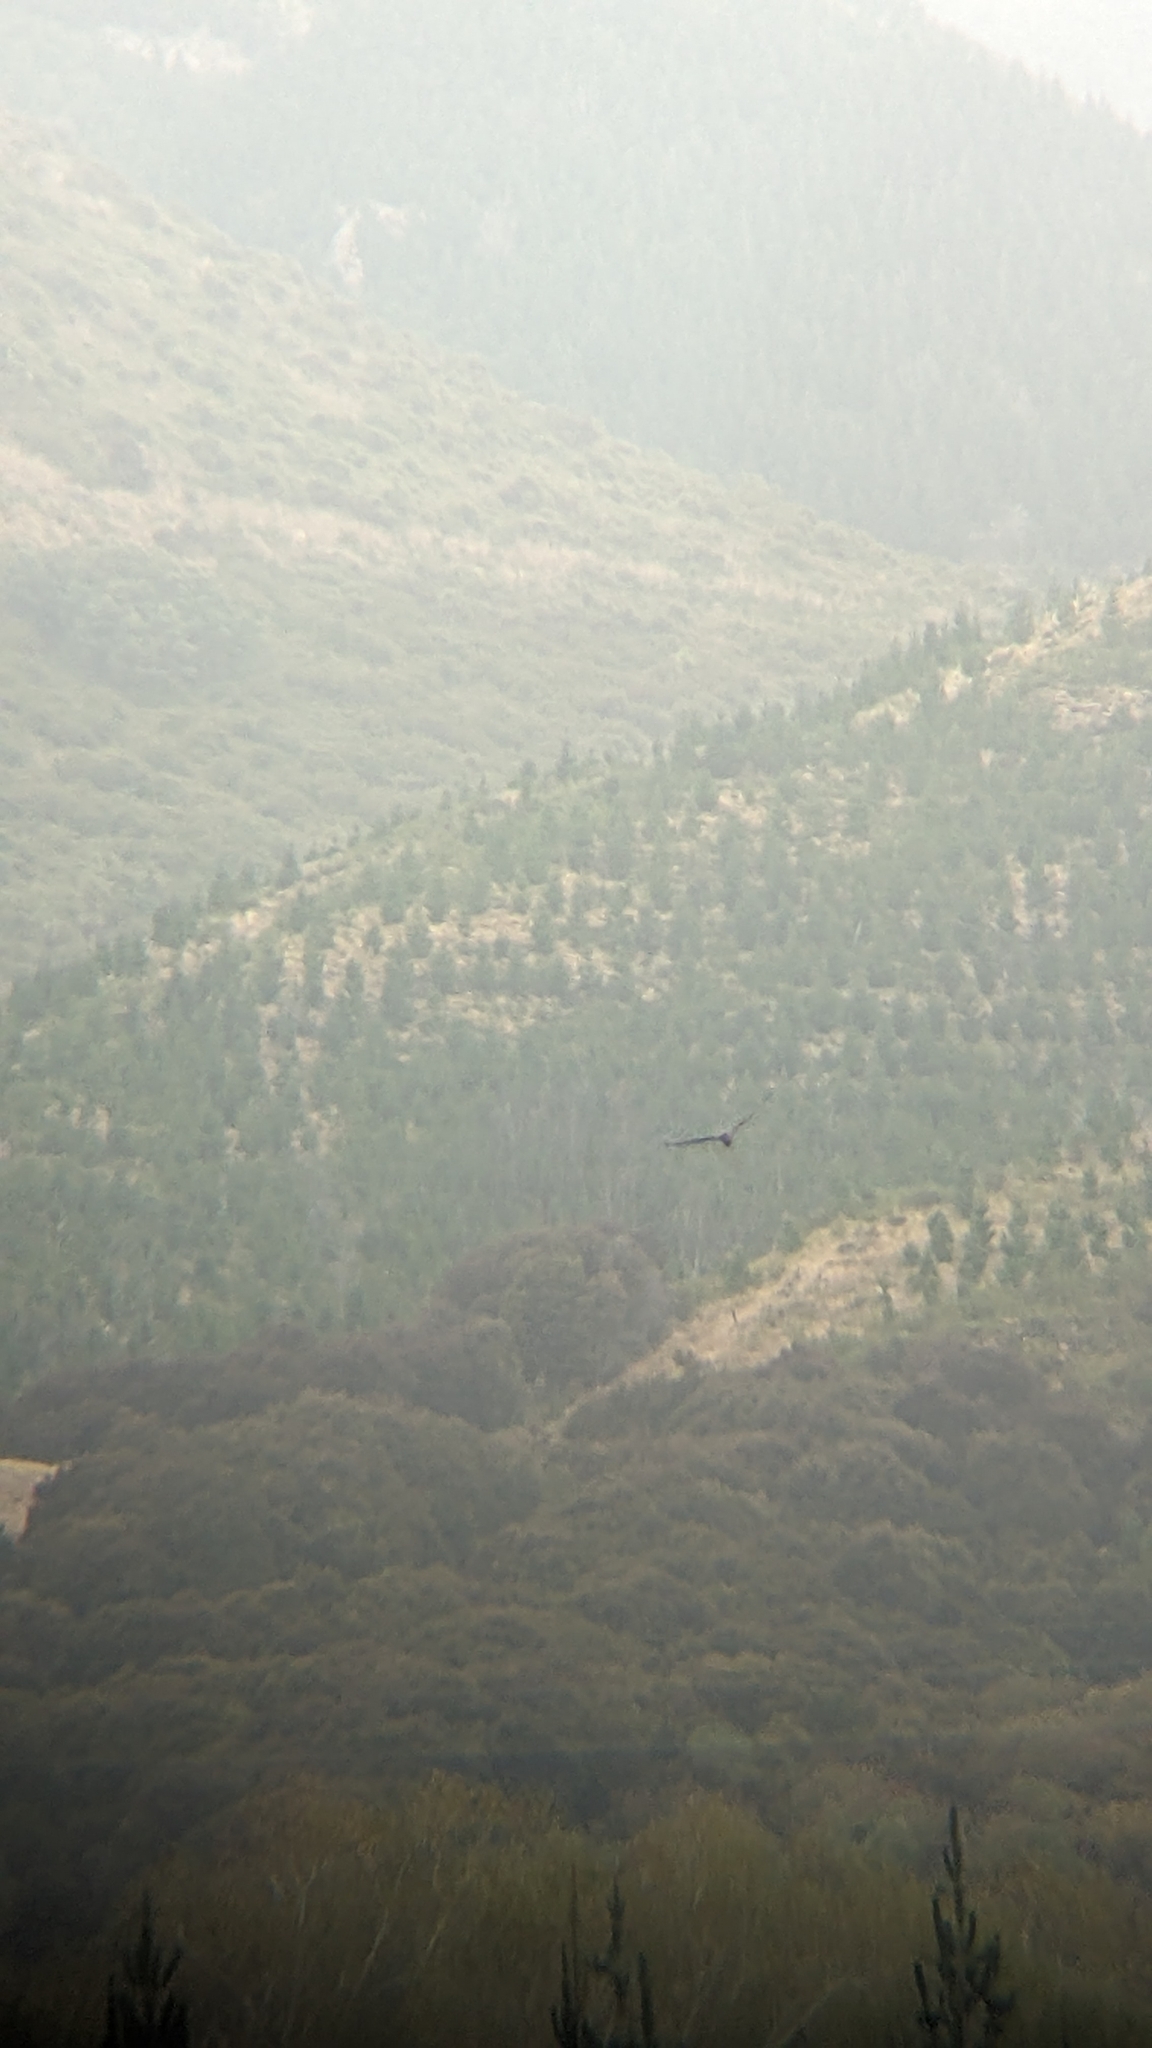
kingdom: Animalia
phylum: Chordata
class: Aves
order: Accipitriformes
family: Accipitridae
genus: Circus
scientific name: Circus approximans
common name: Swamp harrier
